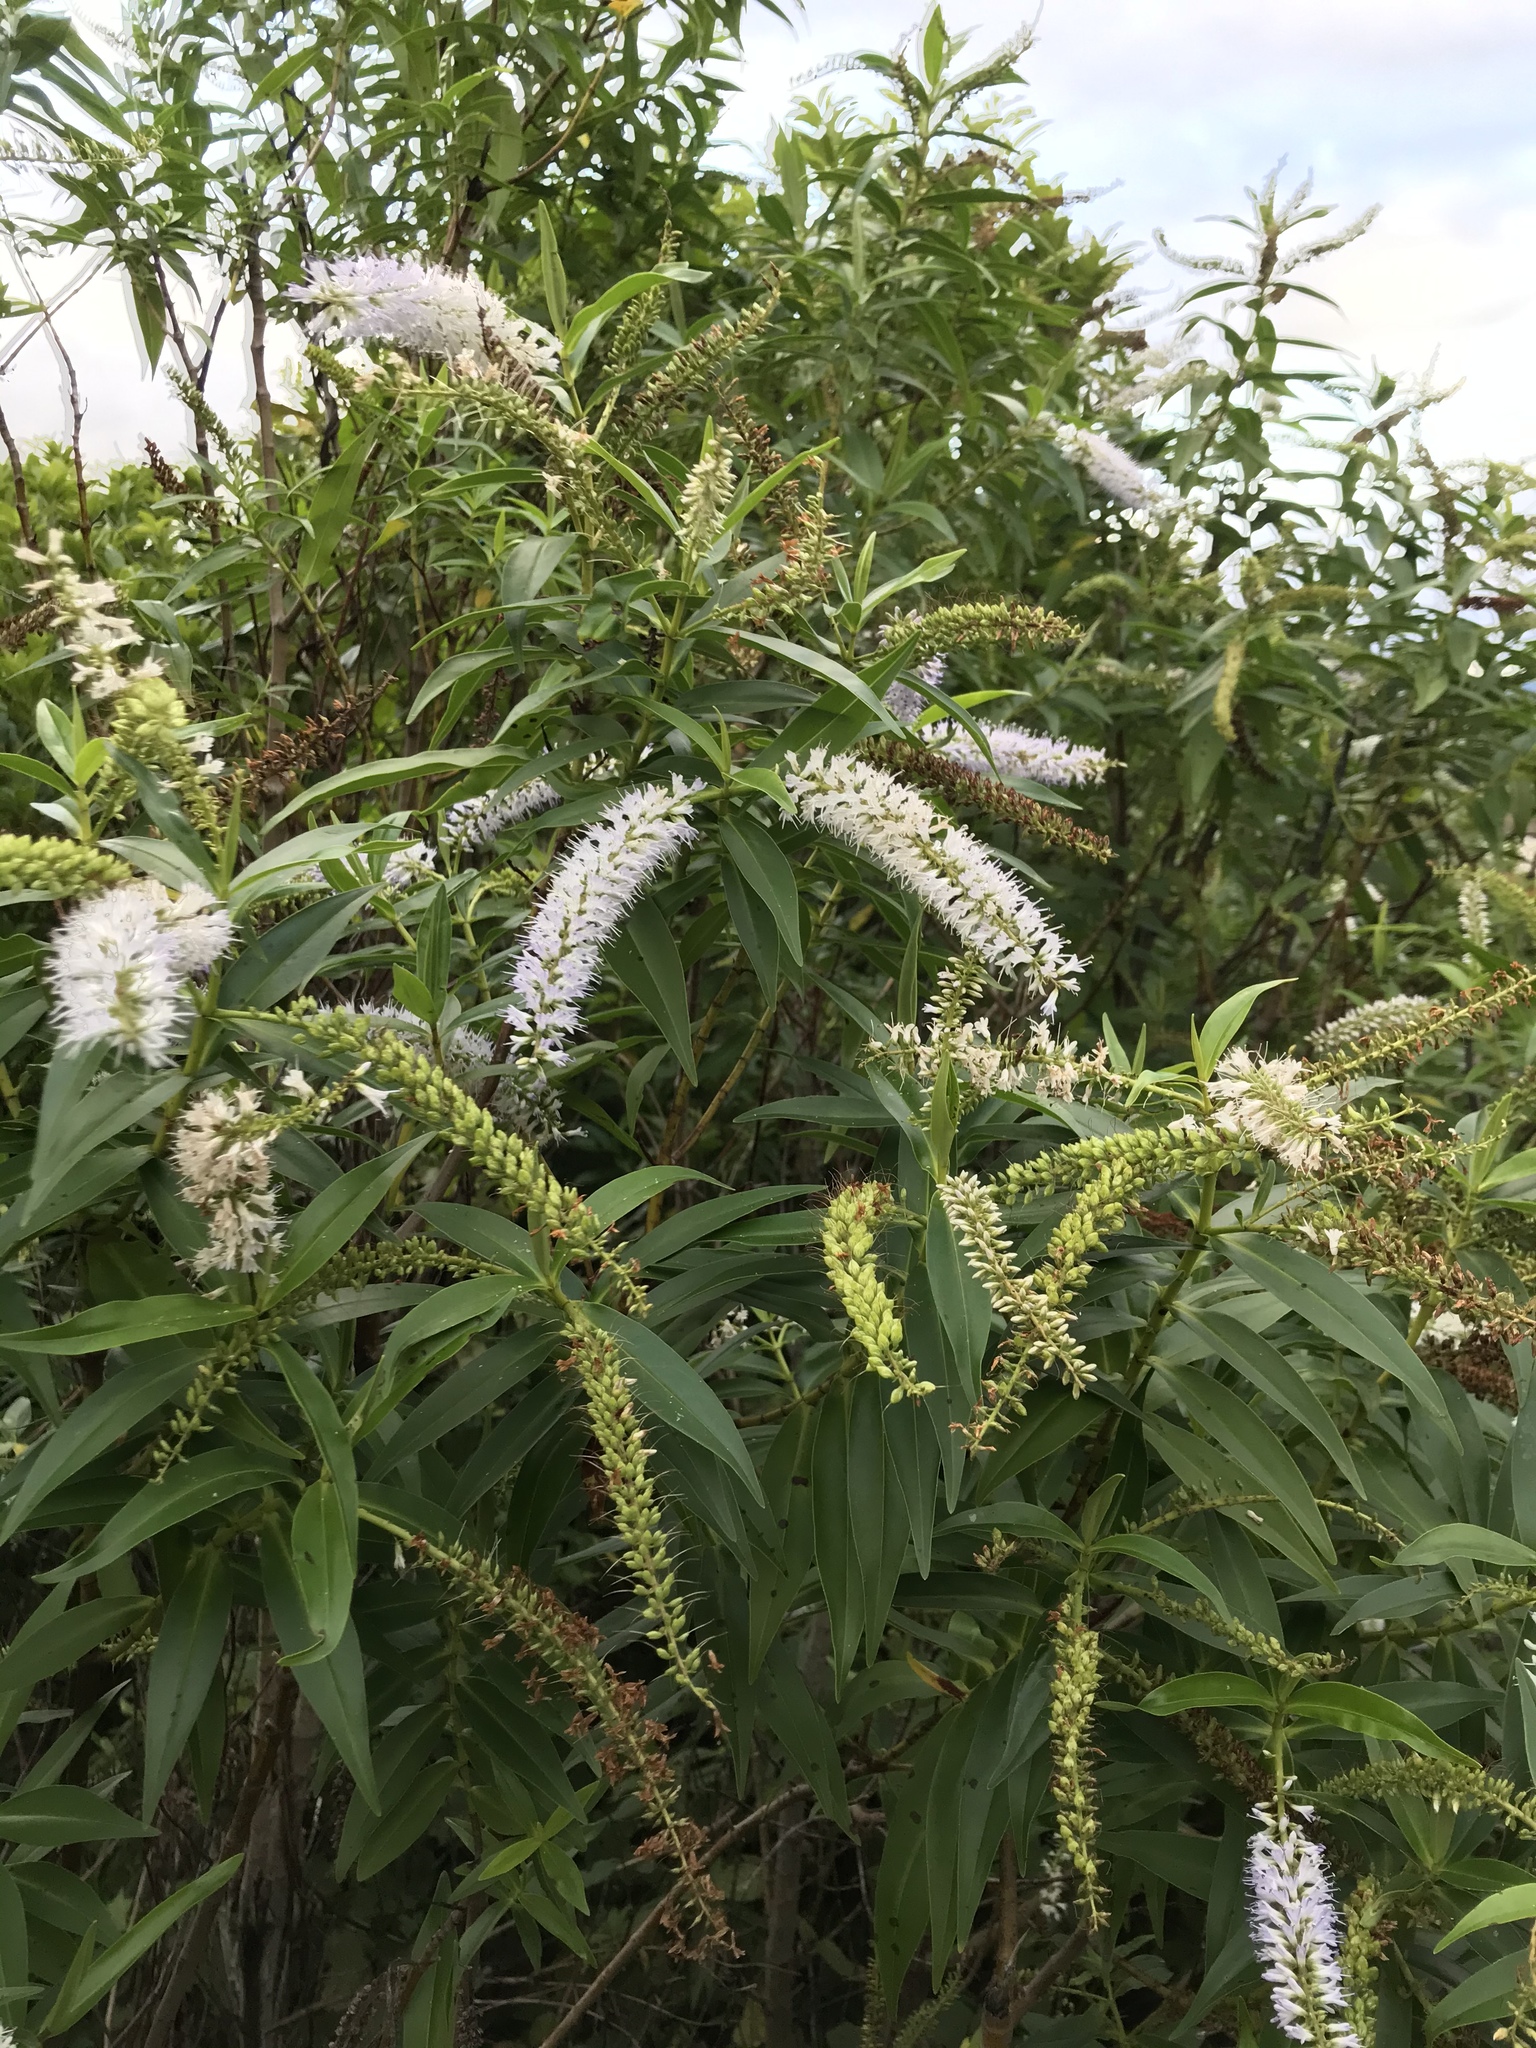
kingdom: Plantae
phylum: Tracheophyta
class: Magnoliopsida
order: Lamiales
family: Plantaginaceae
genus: Veronica
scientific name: Veronica stricta
